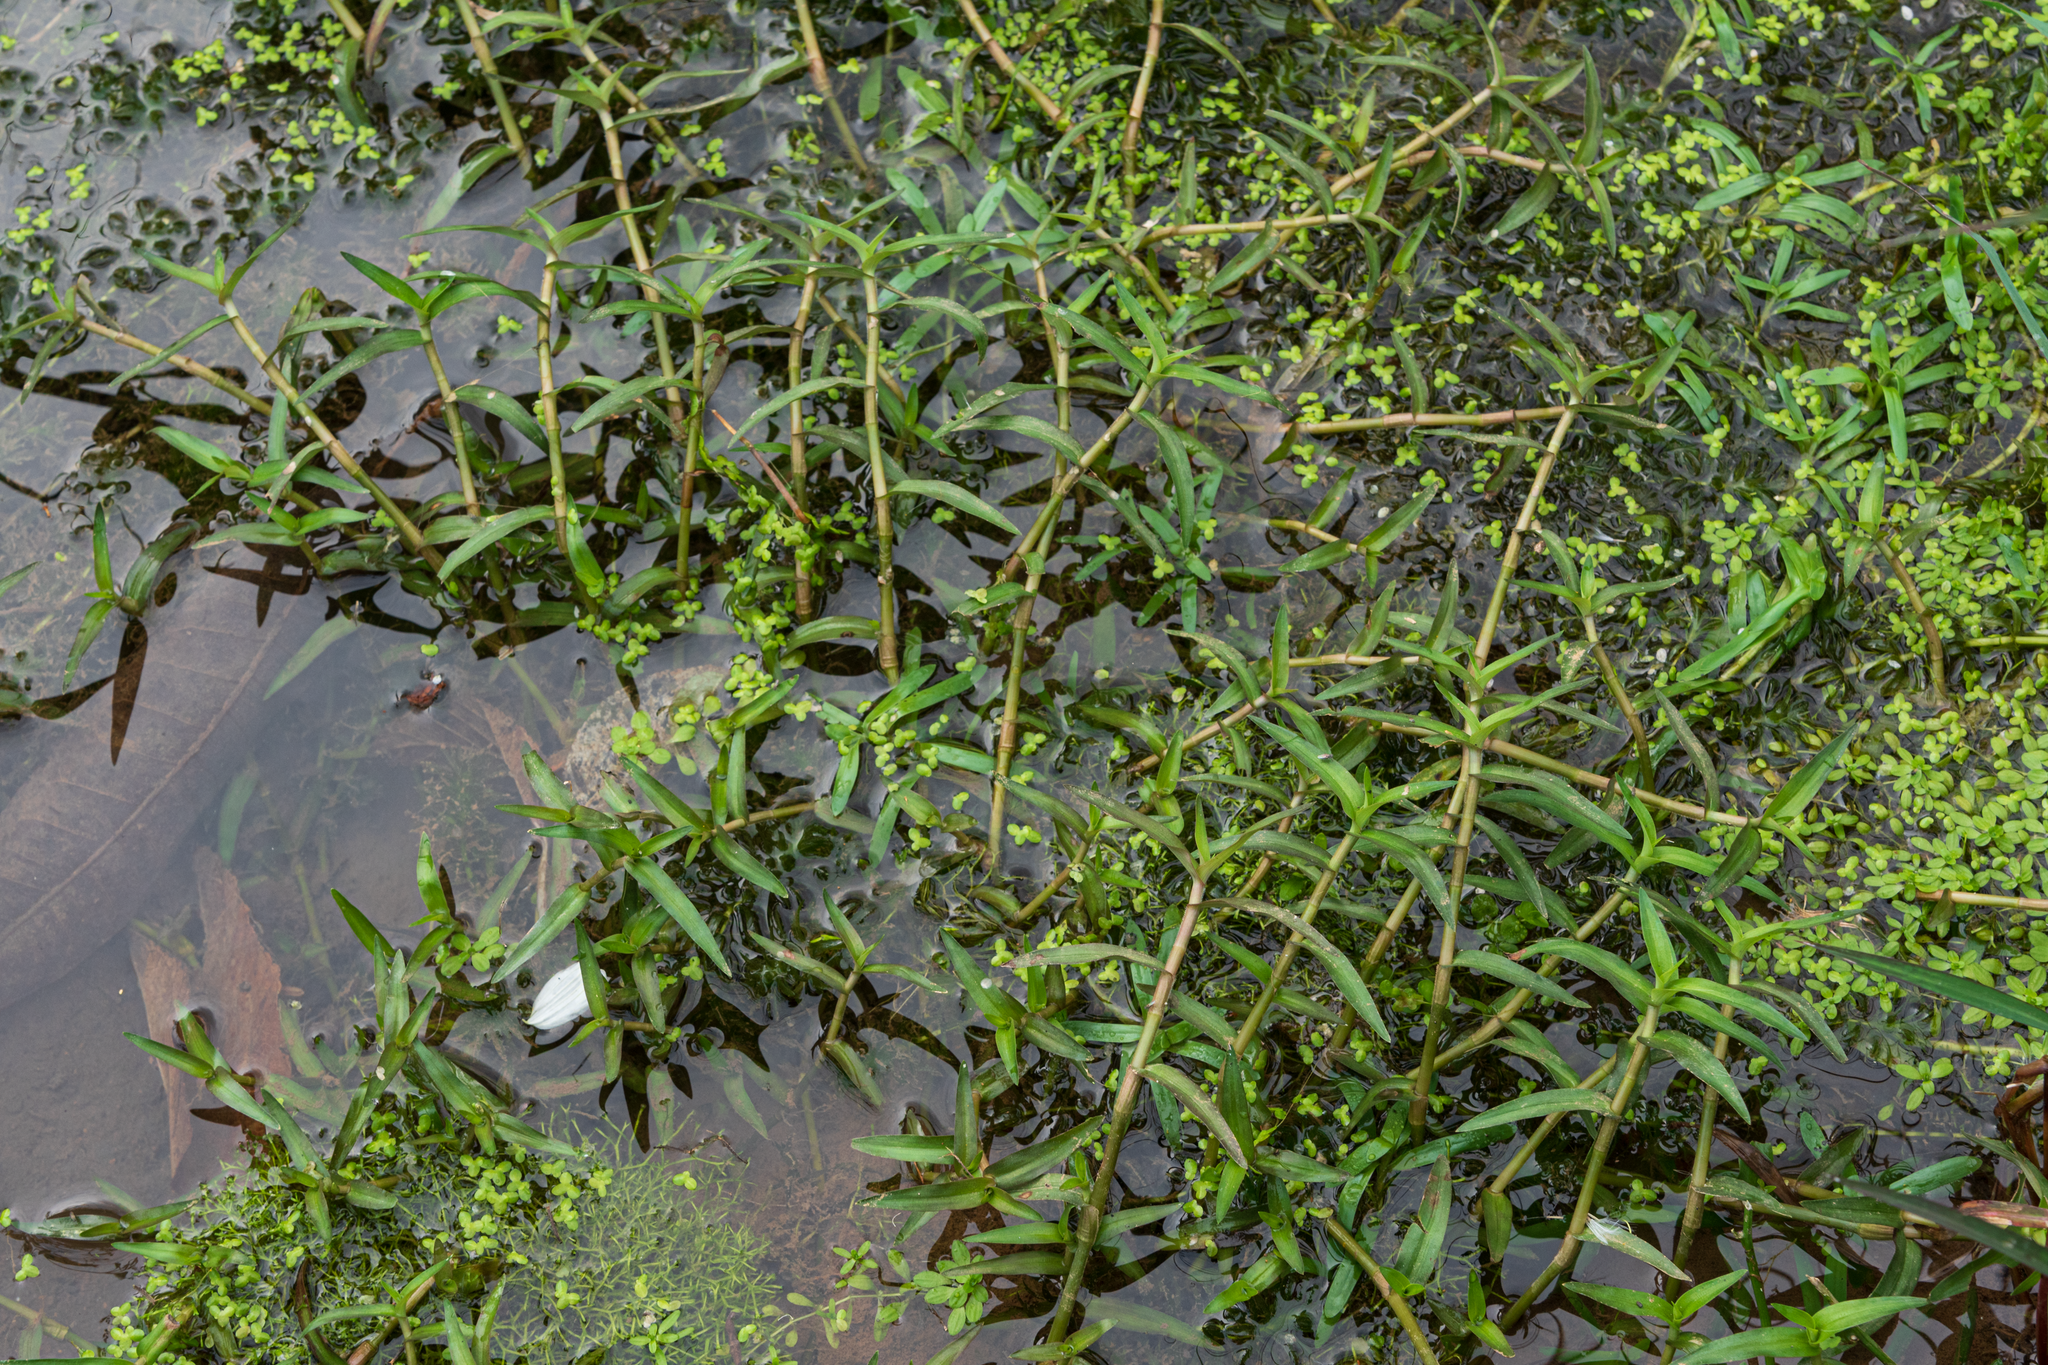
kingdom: Plantae
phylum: Tracheophyta
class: Liliopsida
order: Commelinales
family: Commelinaceae
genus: Murdannia
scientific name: Murdannia keisak
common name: Wartremoving herb
